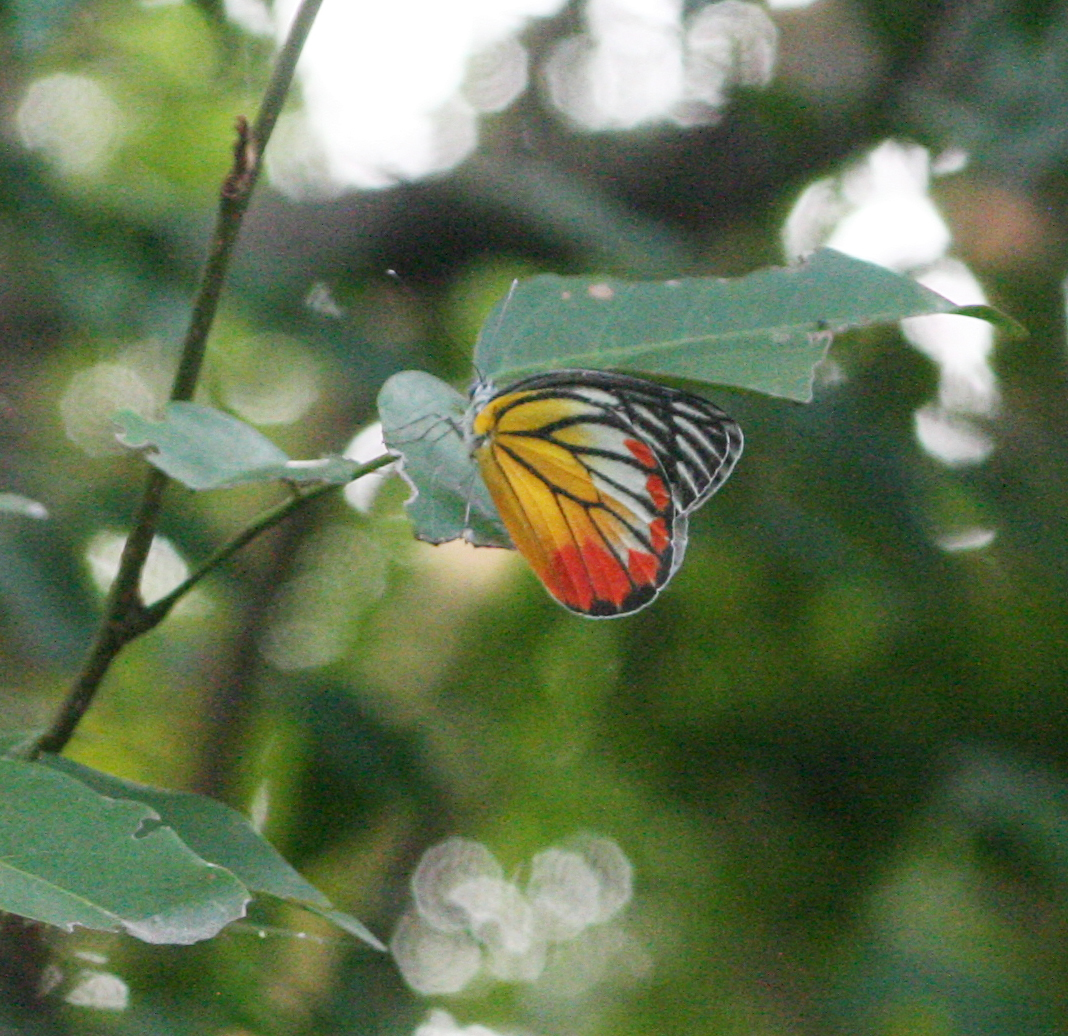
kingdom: Animalia
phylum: Arthropoda
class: Insecta
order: Lepidoptera
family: Pieridae
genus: Delias
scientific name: Delias hyparete
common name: Painted jezebel
